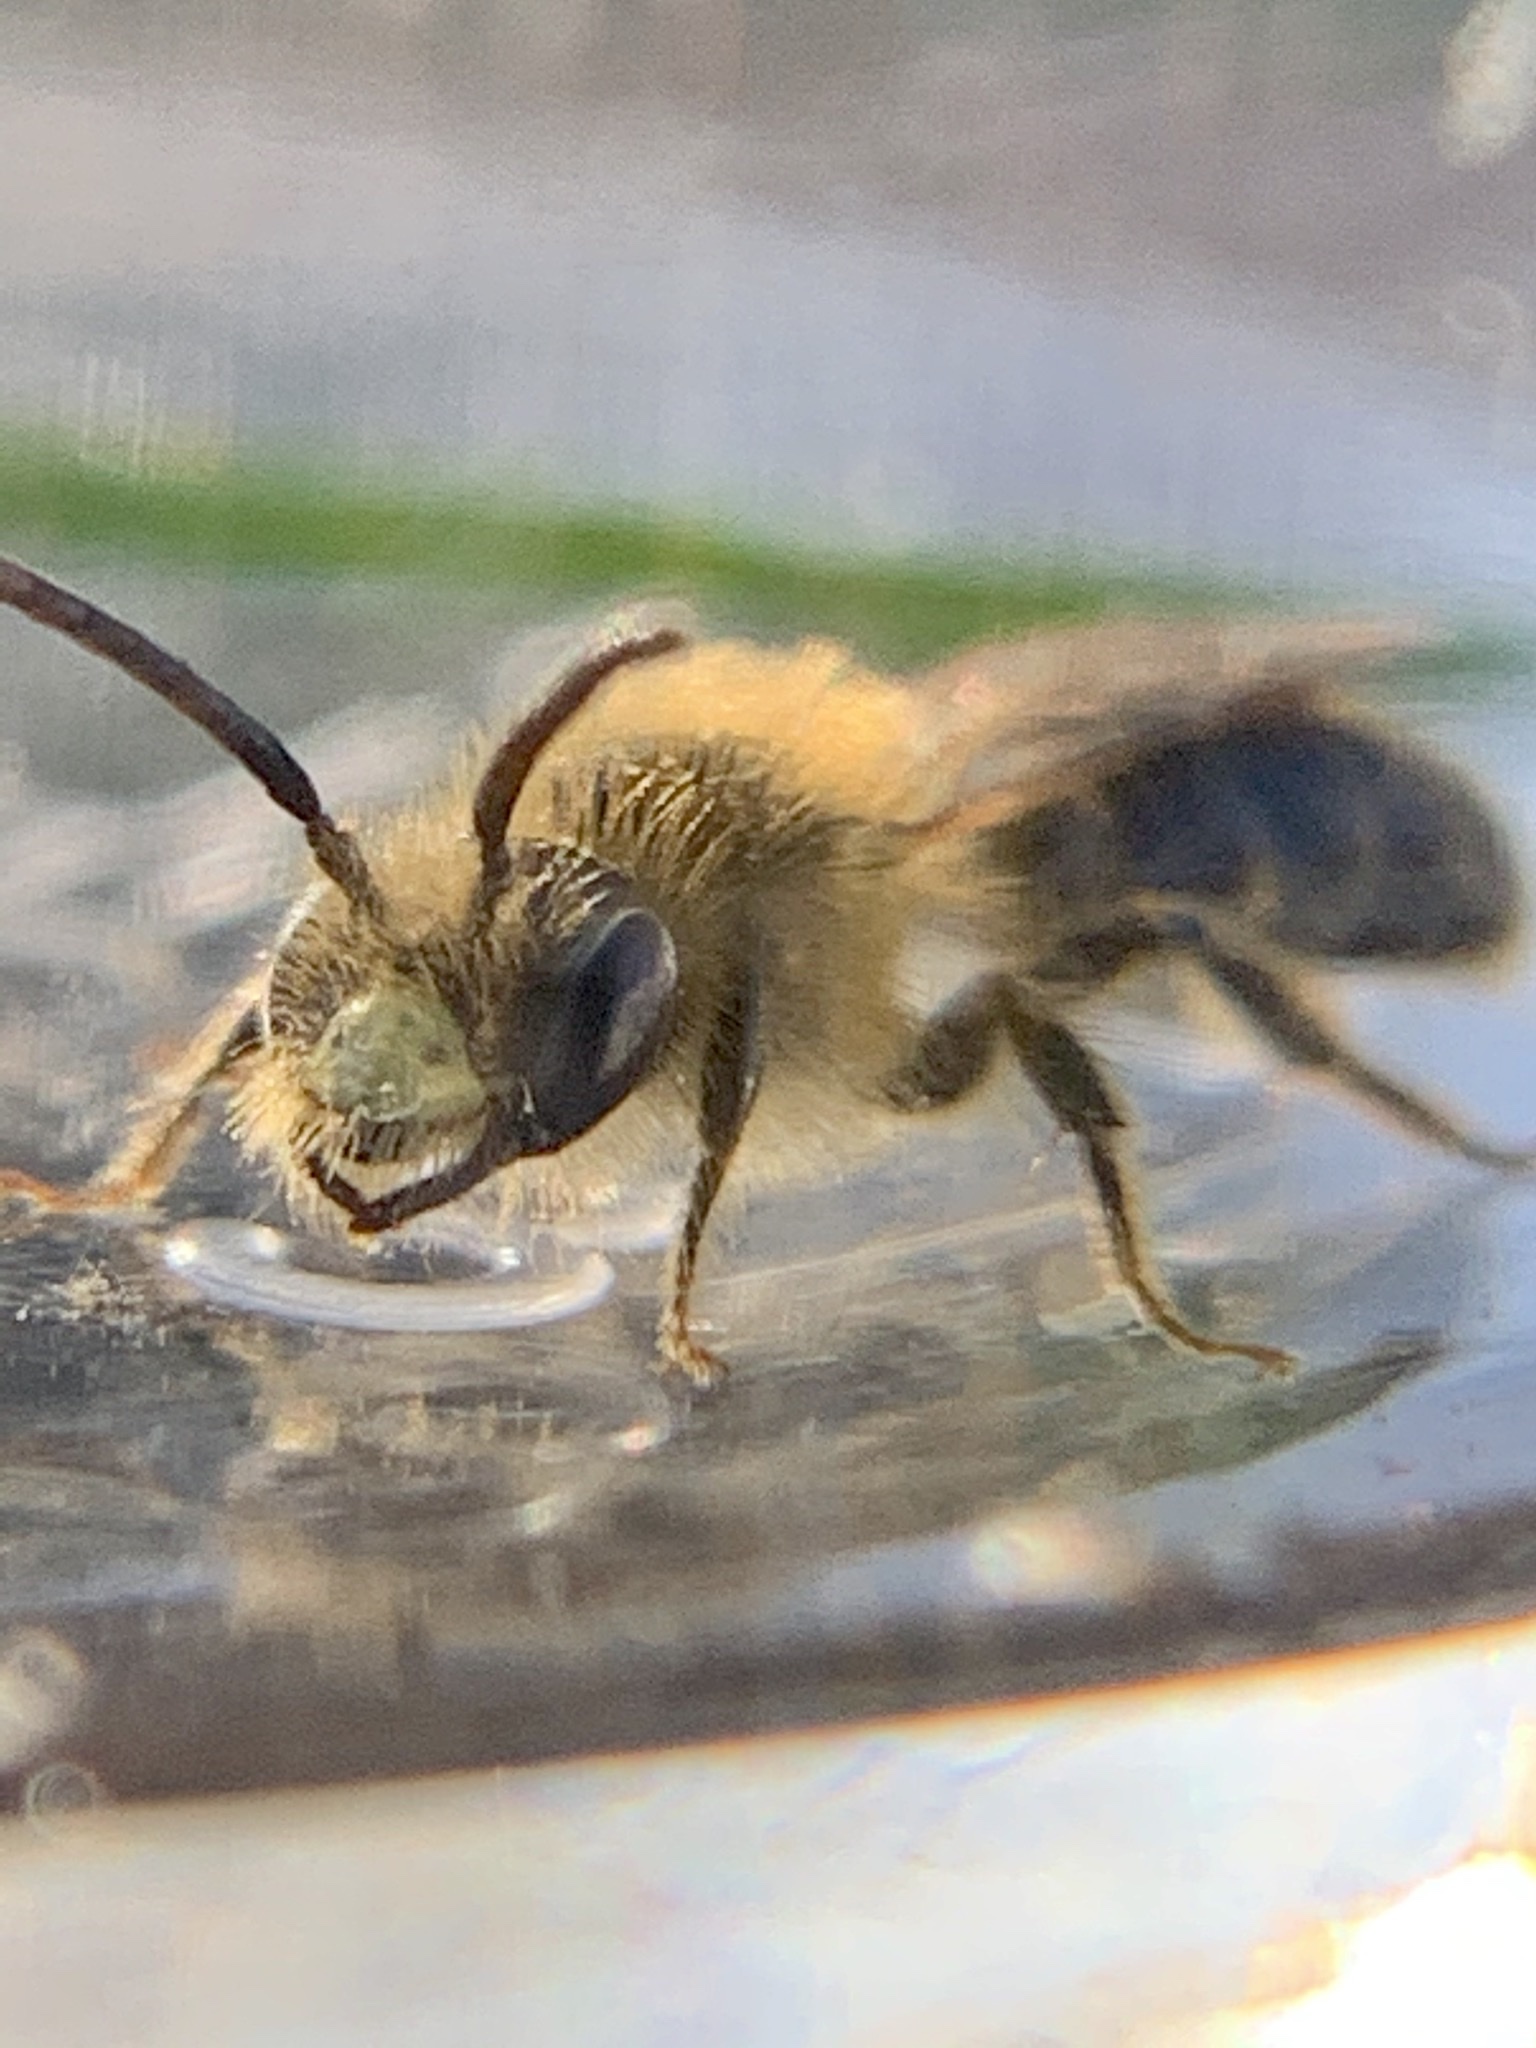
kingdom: Animalia
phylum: Arthropoda
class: Insecta
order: Hymenoptera
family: Andrenidae
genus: Andrena
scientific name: Andrena
